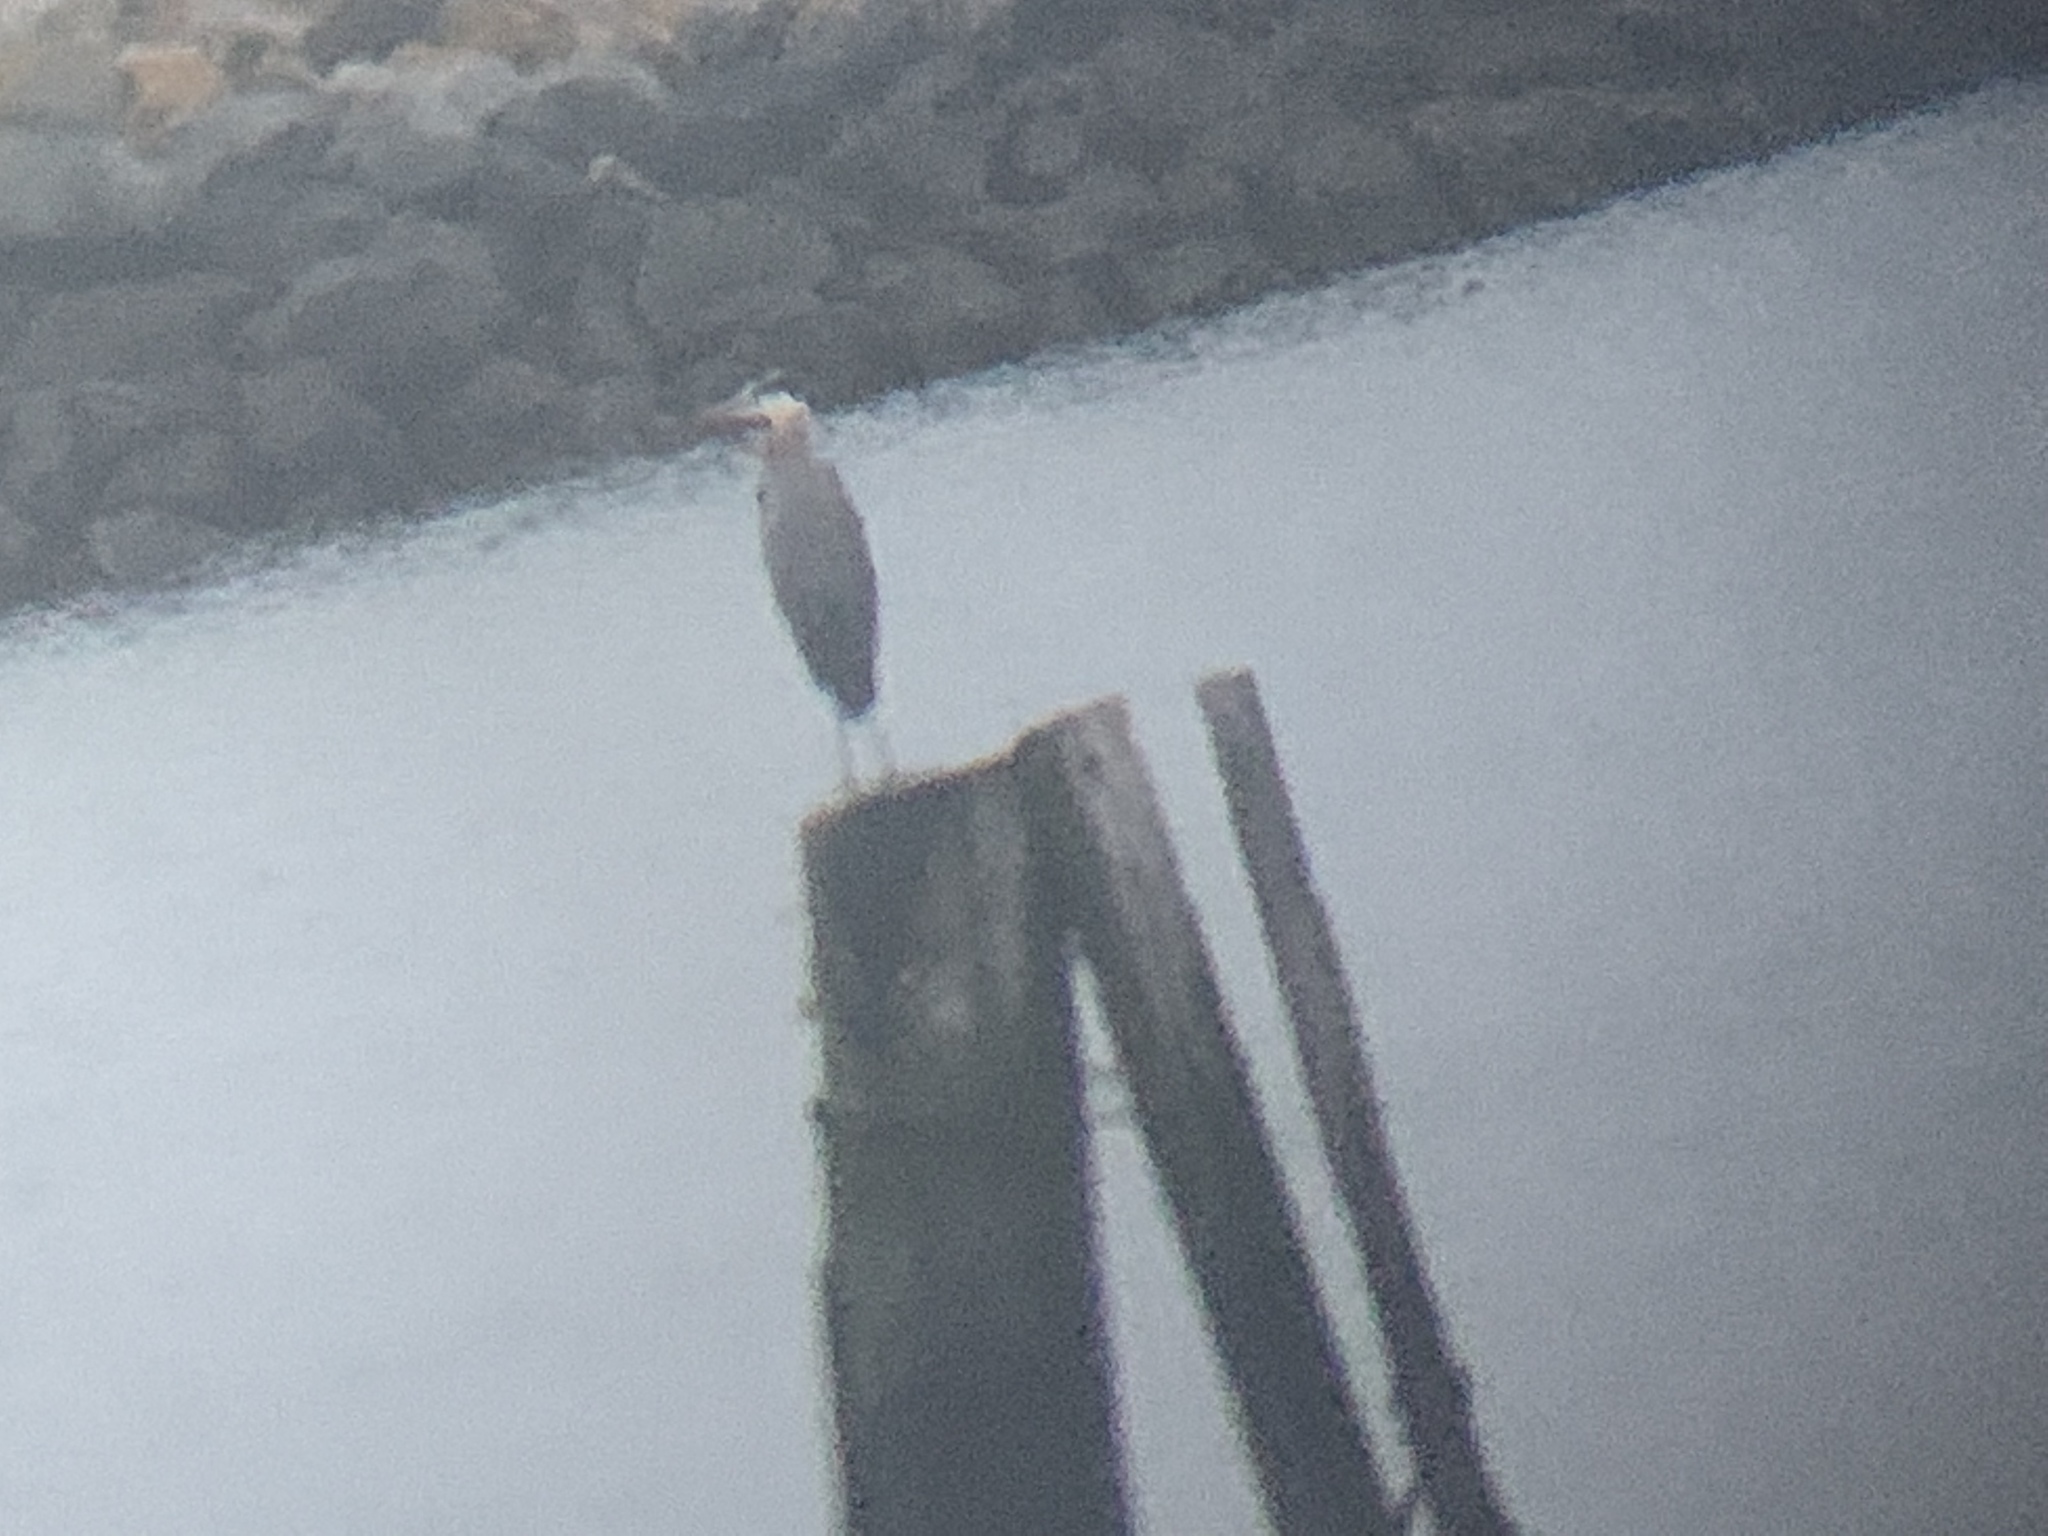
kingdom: Animalia
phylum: Chordata
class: Aves
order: Pelecaniformes
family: Ardeidae
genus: Ardea
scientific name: Ardea herodias
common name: Great blue heron
